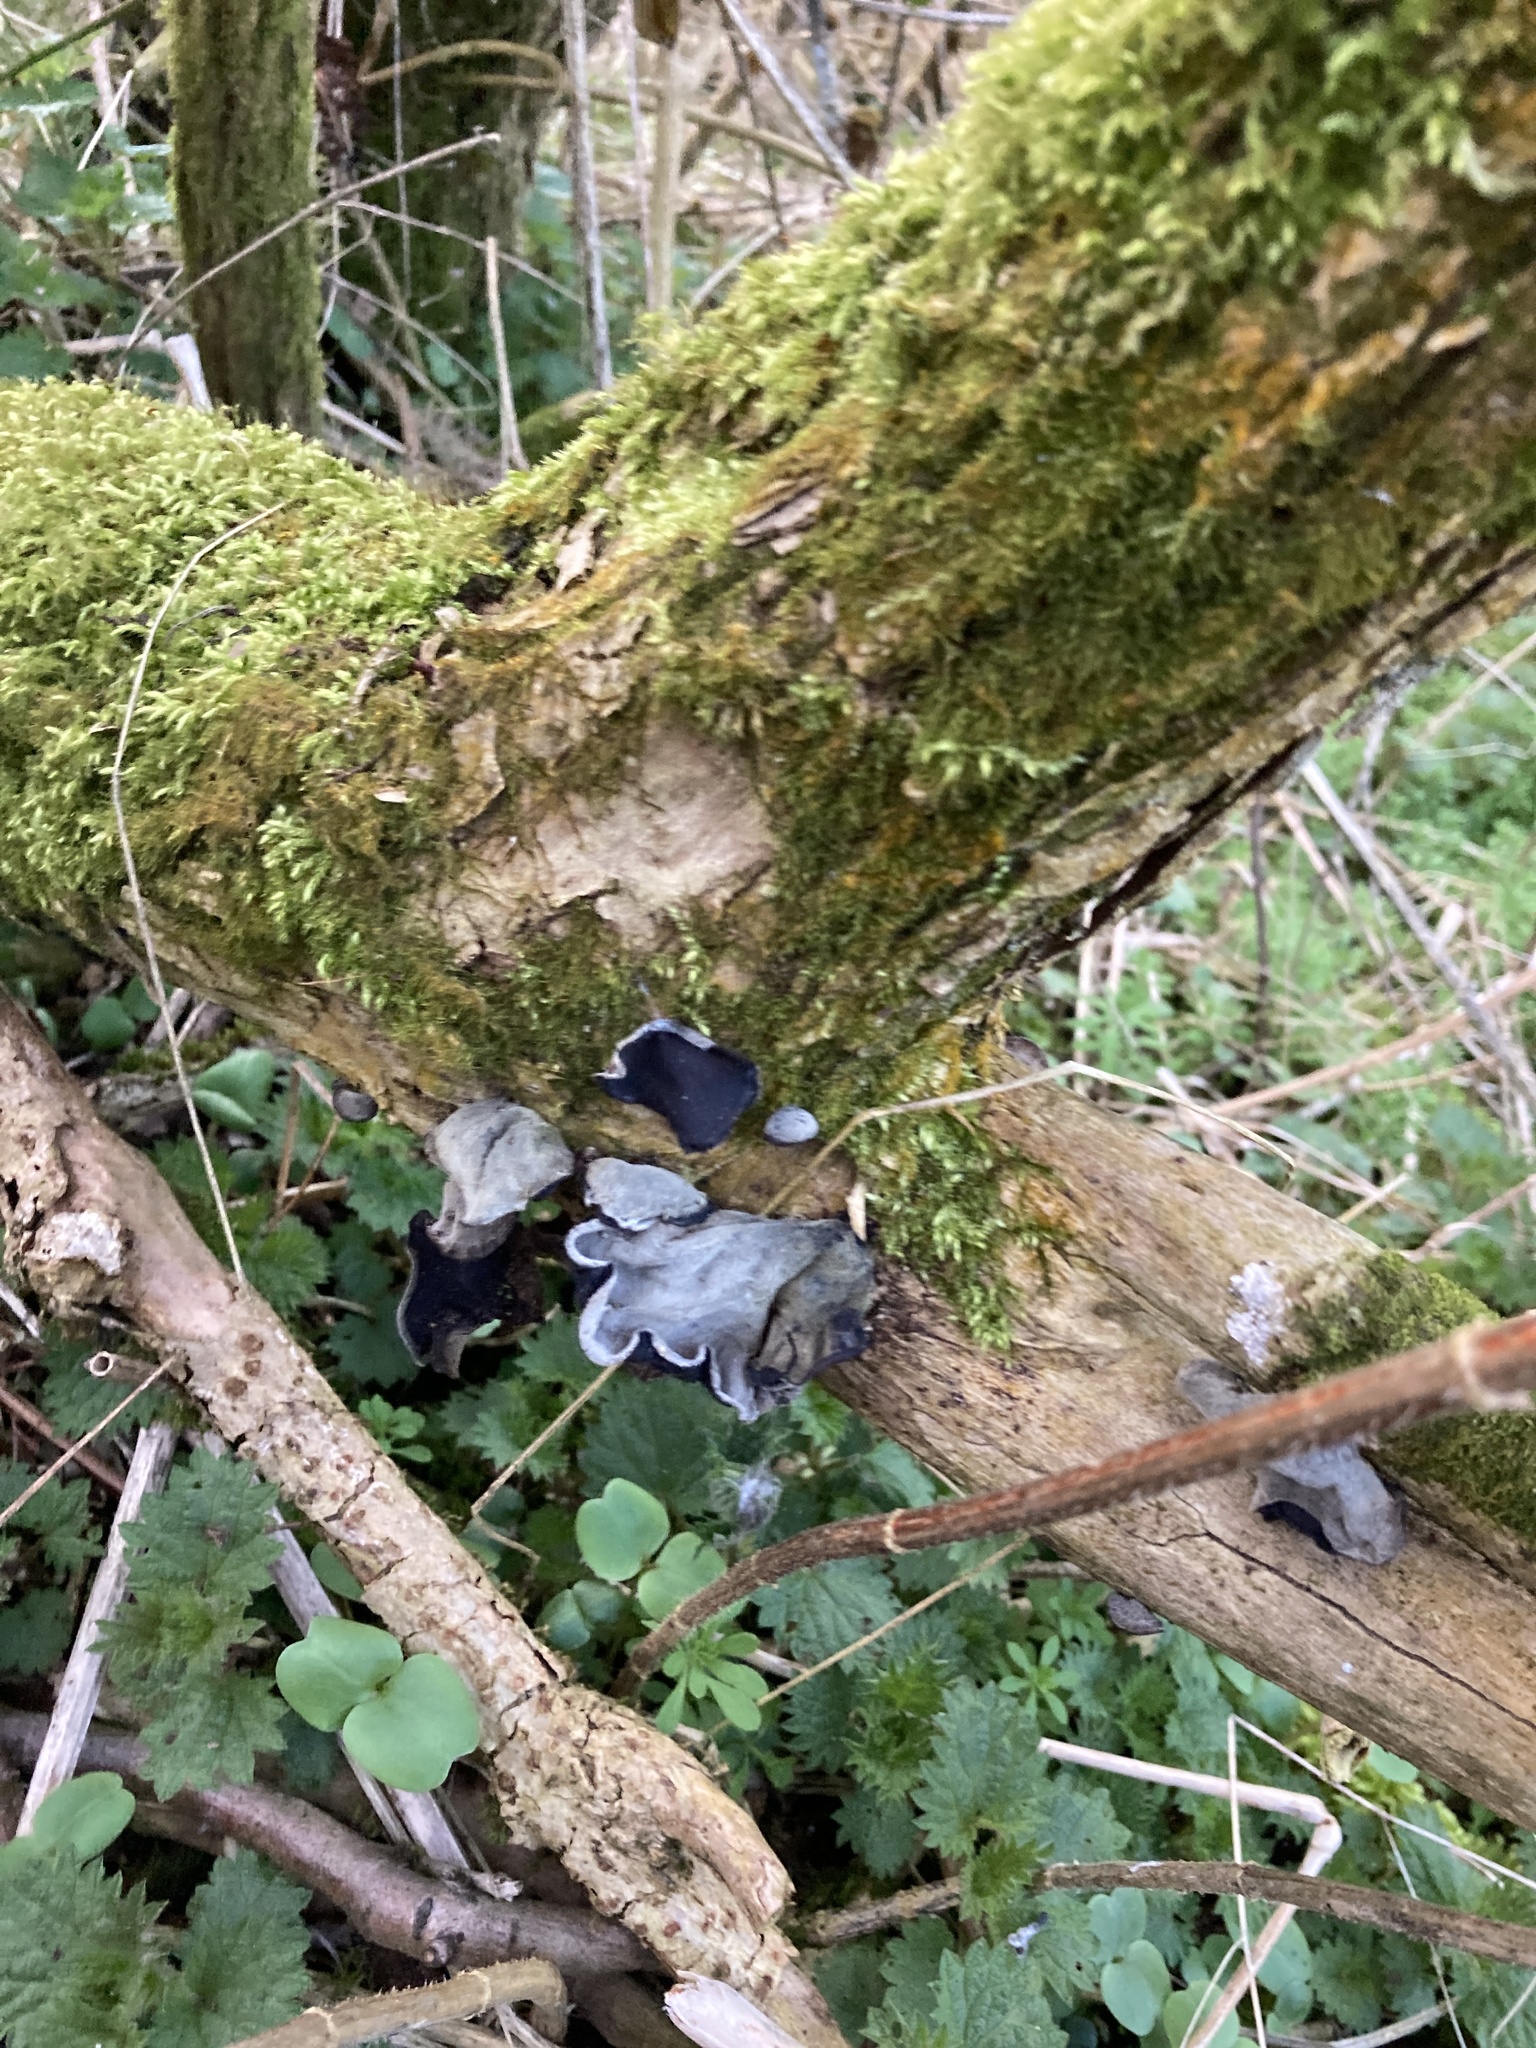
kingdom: Fungi
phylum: Basidiomycota
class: Agaricomycetes
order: Auriculariales
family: Auriculariaceae
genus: Auricularia
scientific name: Auricularia auricula-judae
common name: Jelly ear
